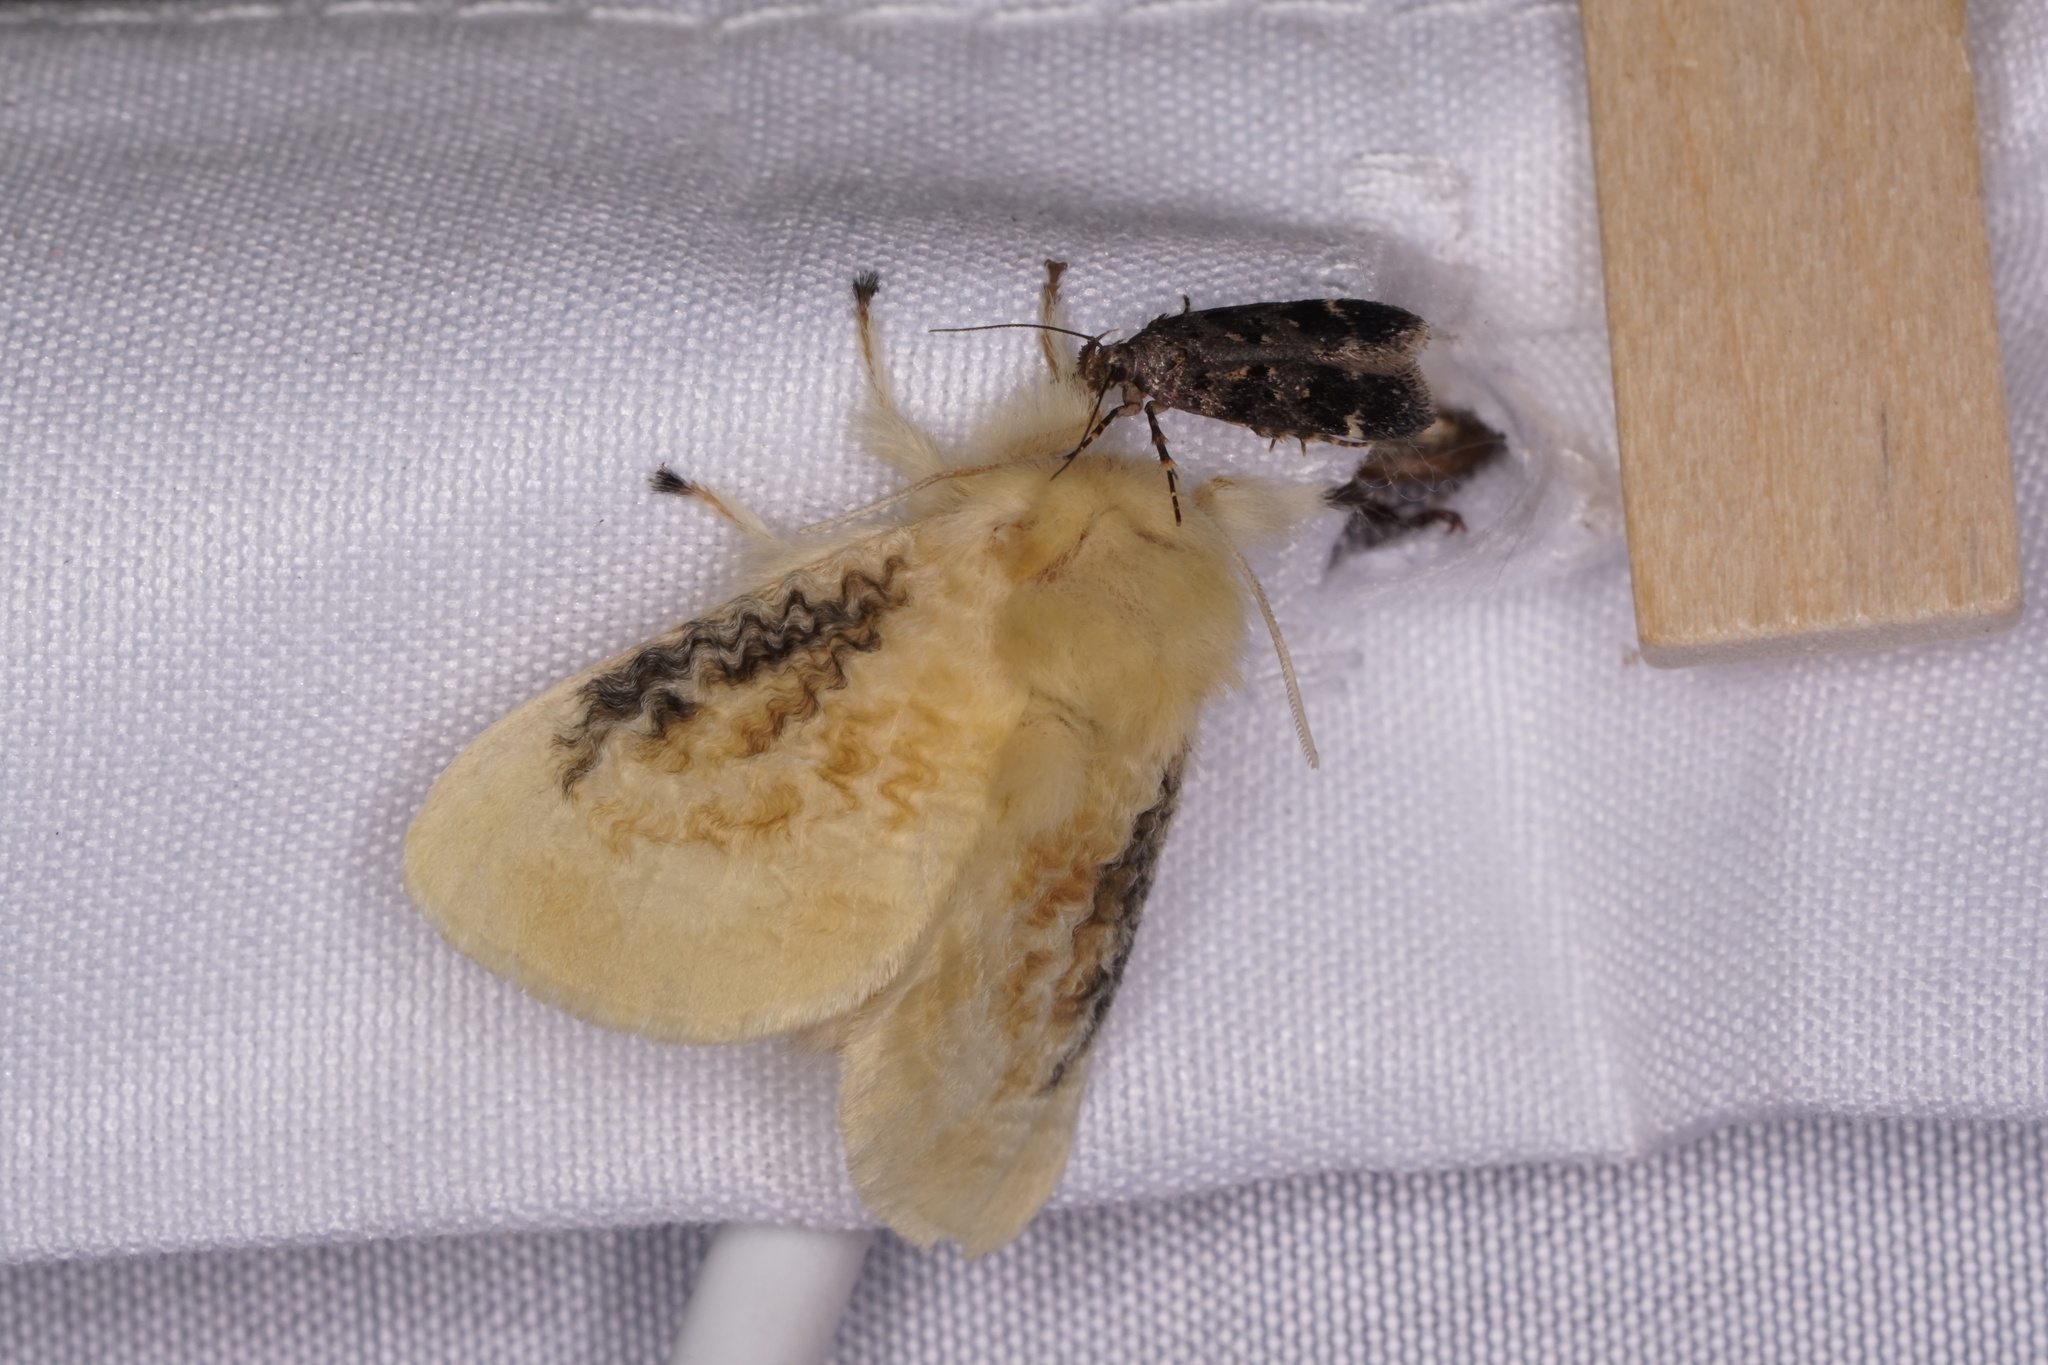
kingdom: Animalia
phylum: Arthropoda
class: Insecta
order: Lepidoptera
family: Megalopygidae
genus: Megalopyge
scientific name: Megalopyge crispata
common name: Black-waved flannel moth
